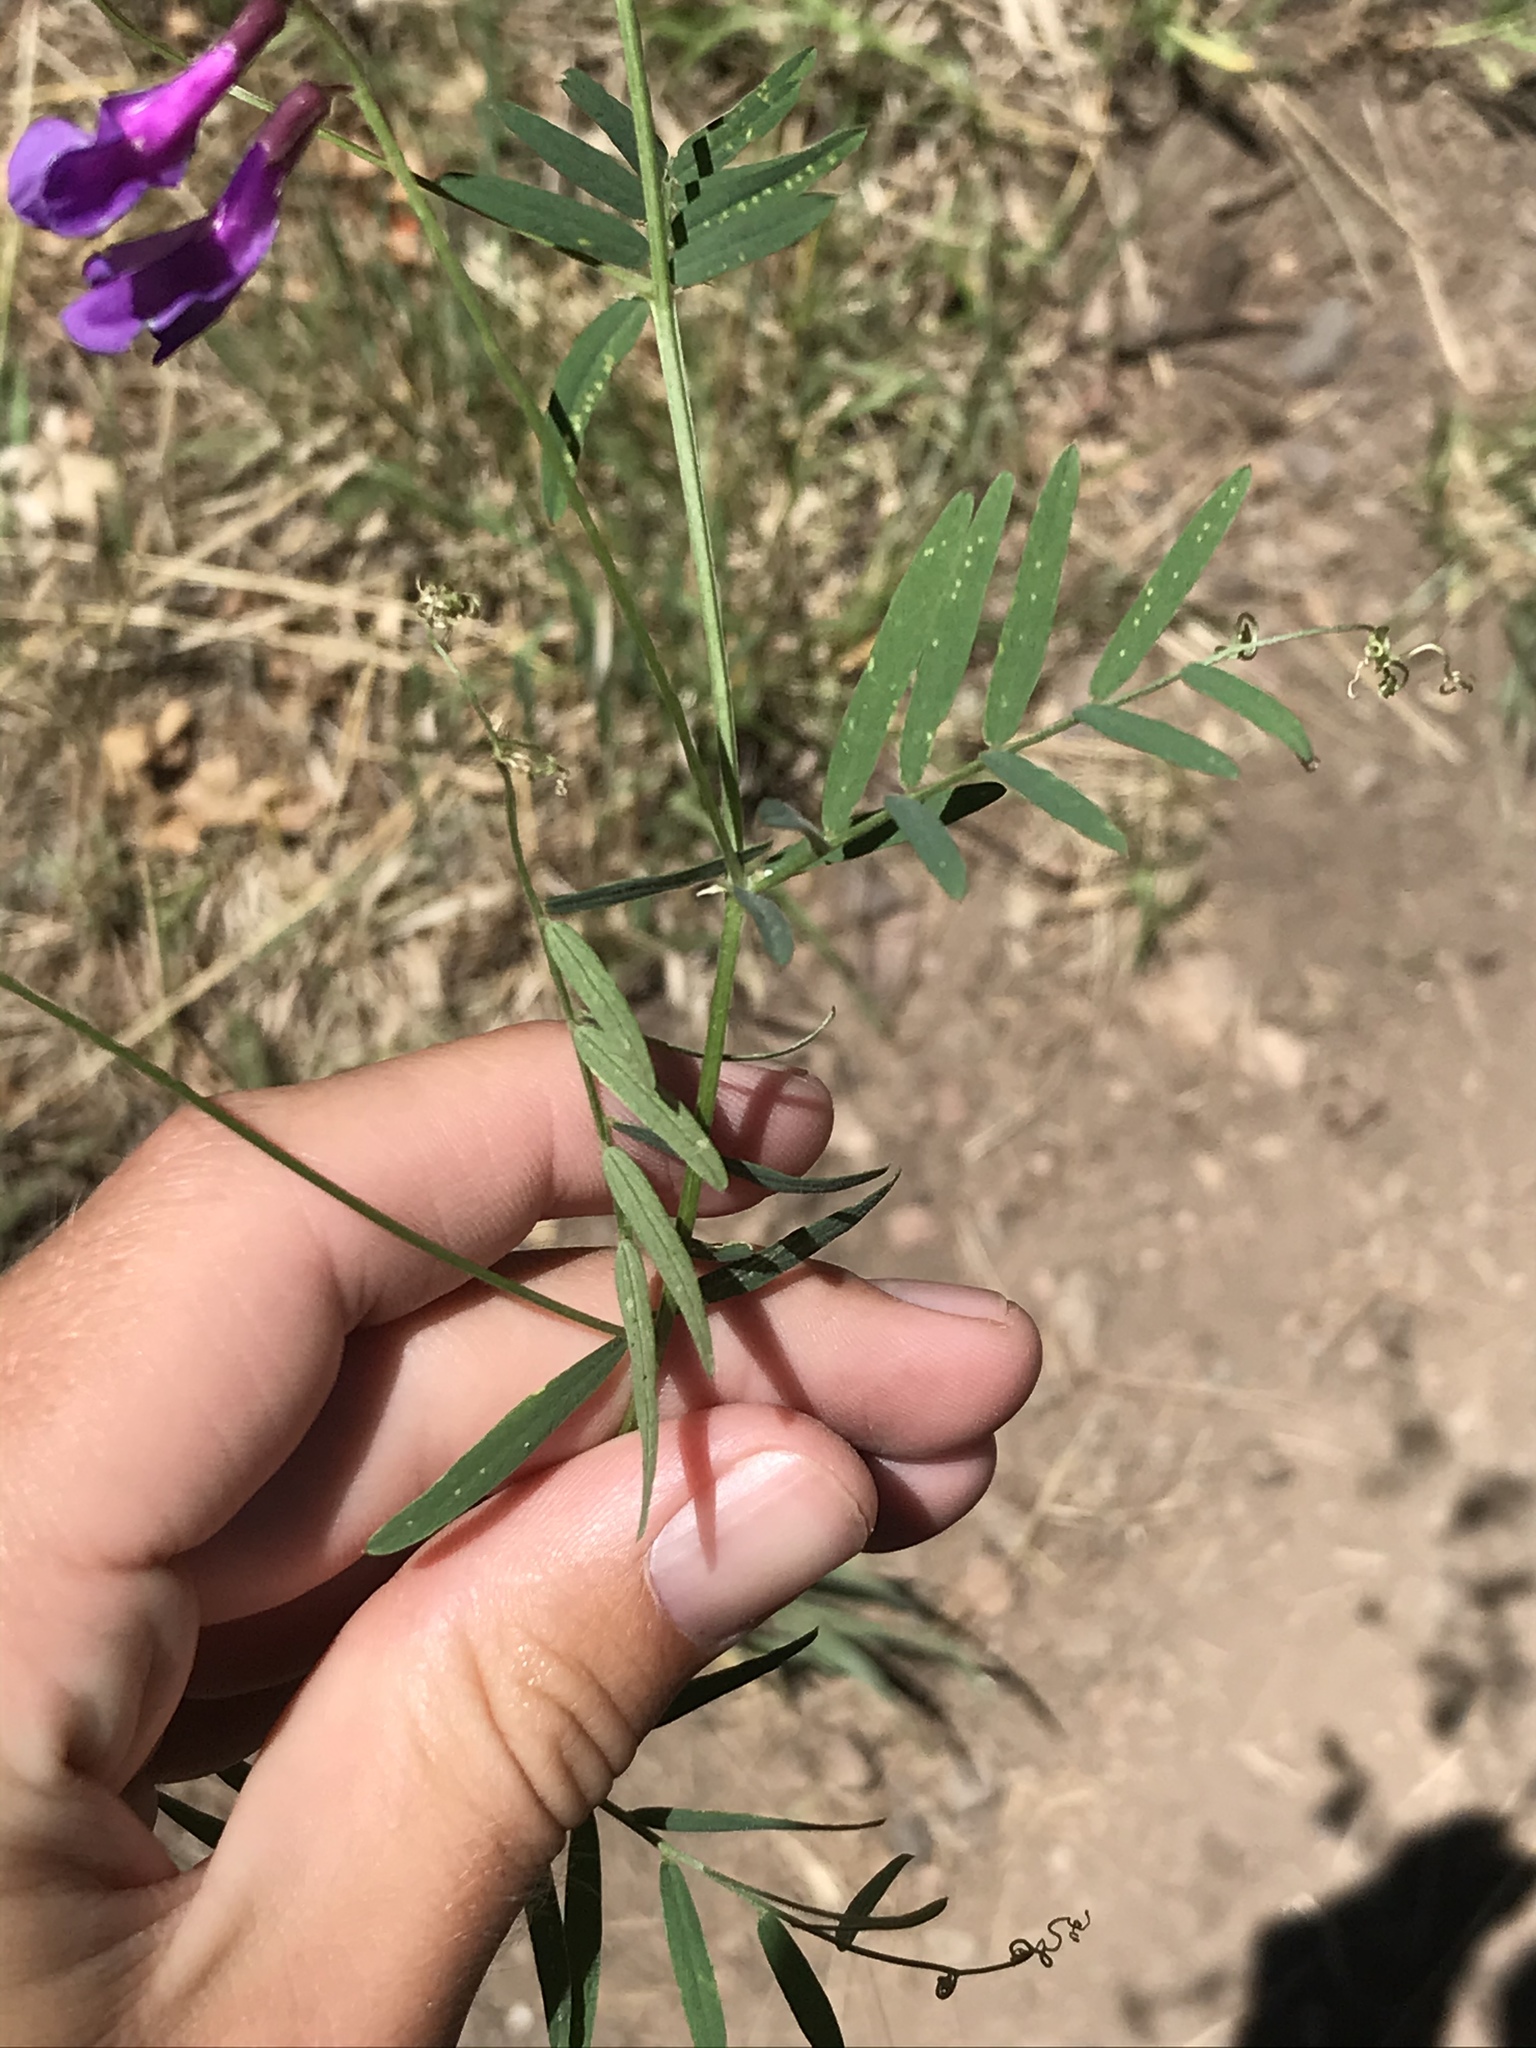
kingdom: Plantae
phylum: Tracheophyta
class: Magnoliopsida
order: Fabales
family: Fabaceae
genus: Vicia
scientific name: Vicia americana
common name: American vetch
